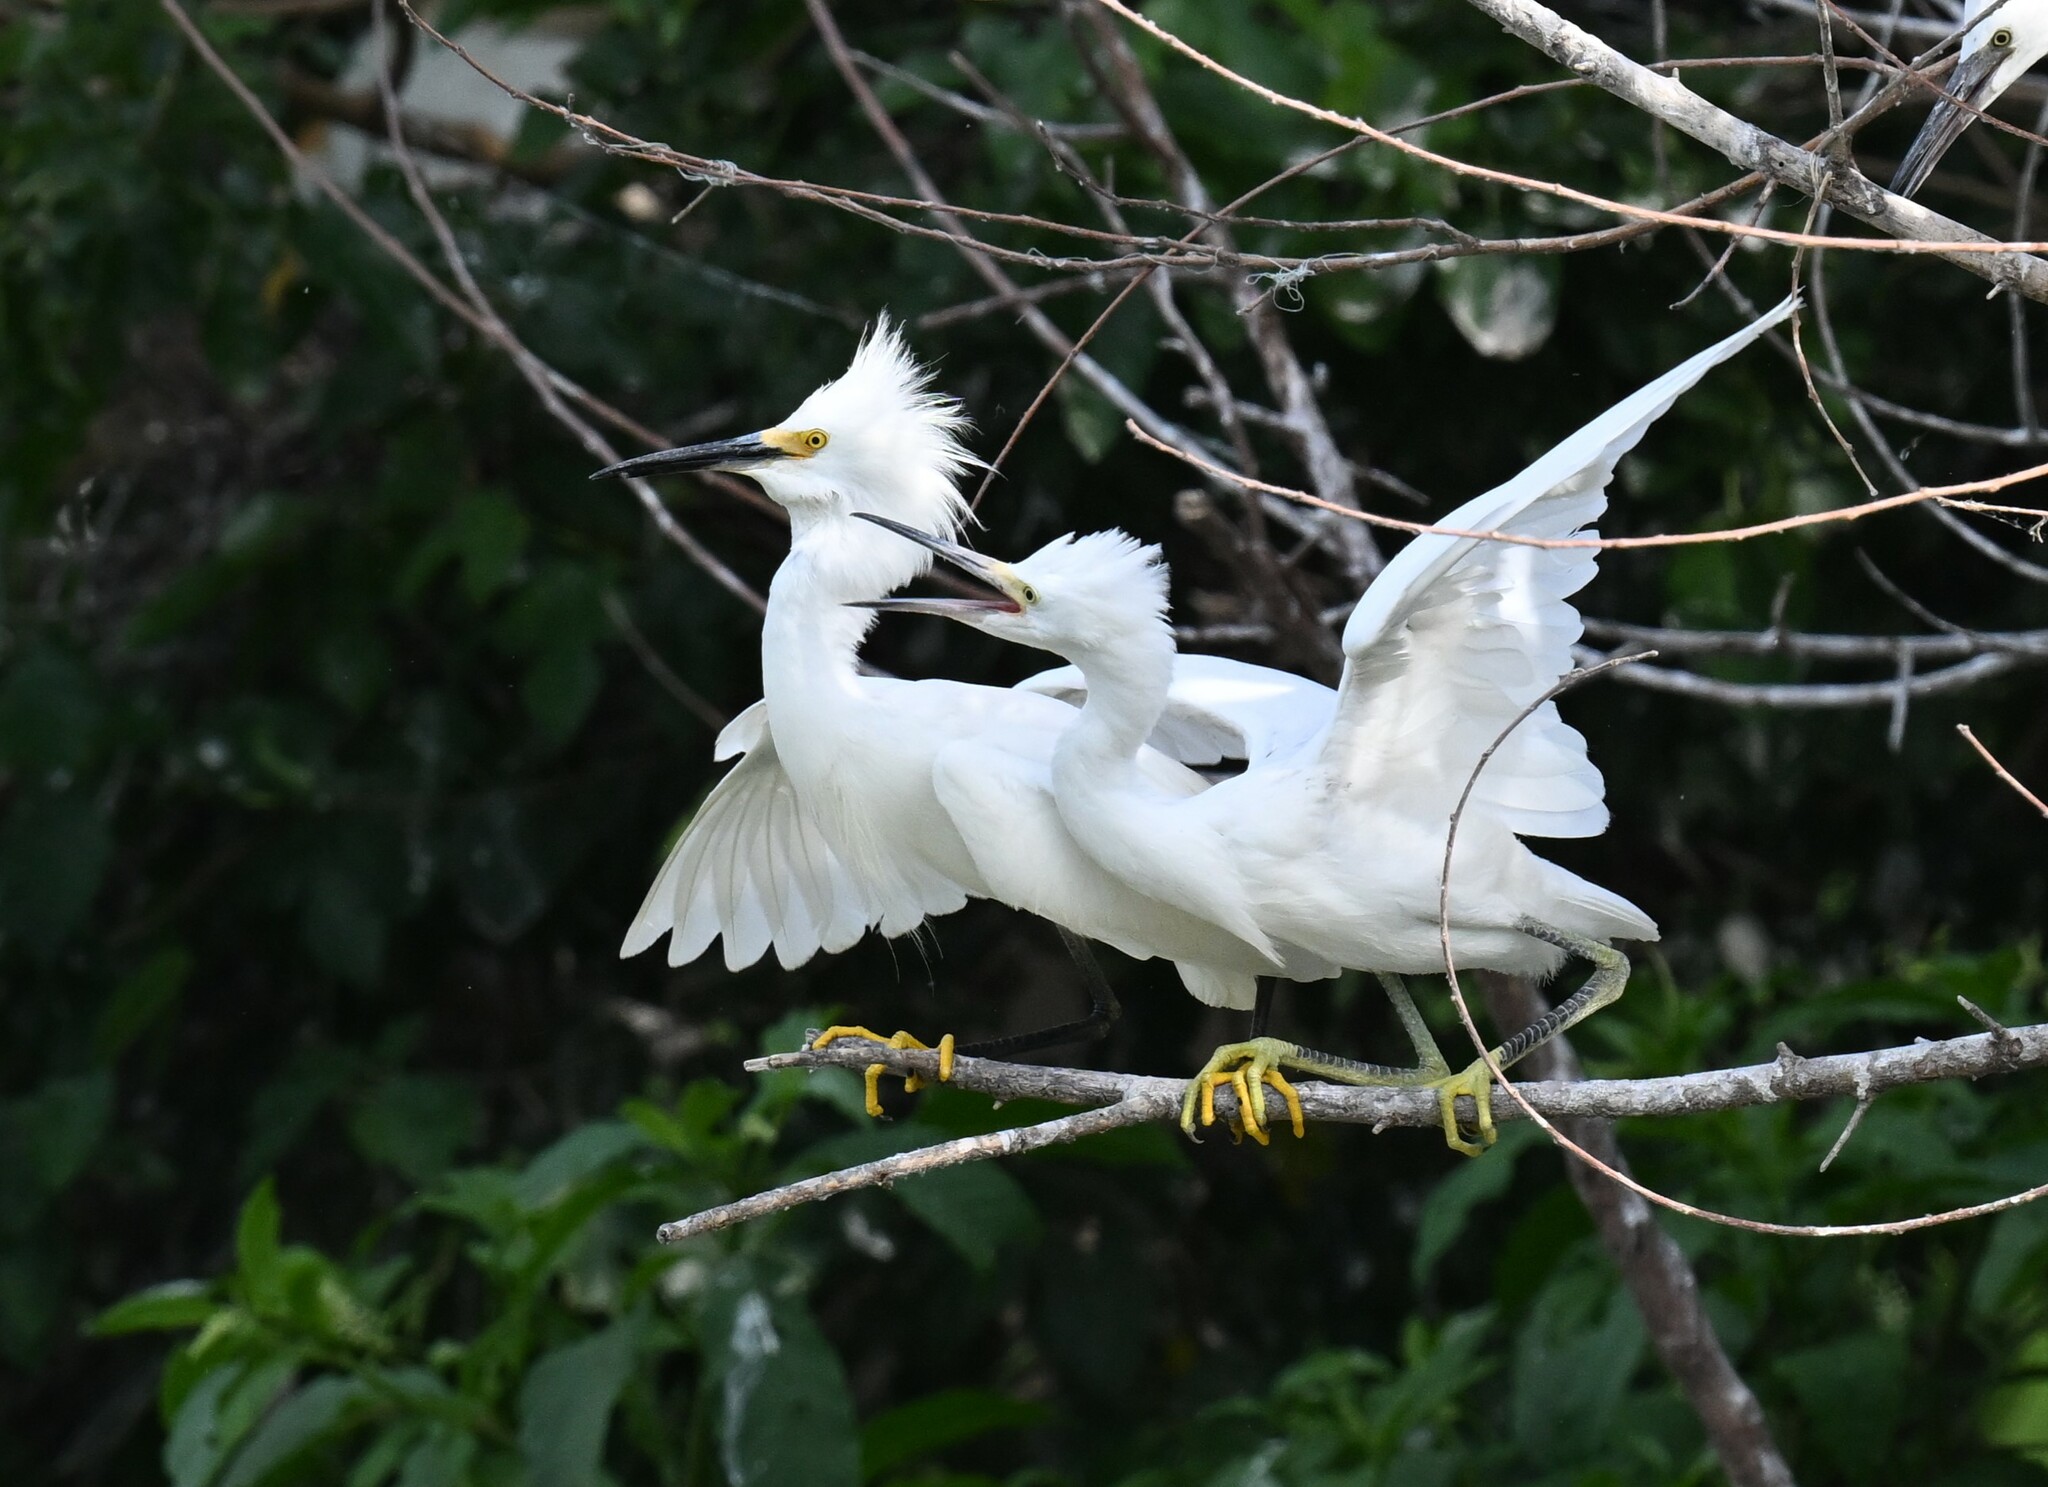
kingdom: Animalia
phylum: Chordata
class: Aves
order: Pelecaniformes
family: Ardeidae
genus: Egretta
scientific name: Egretta thula
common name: Snowy egret
